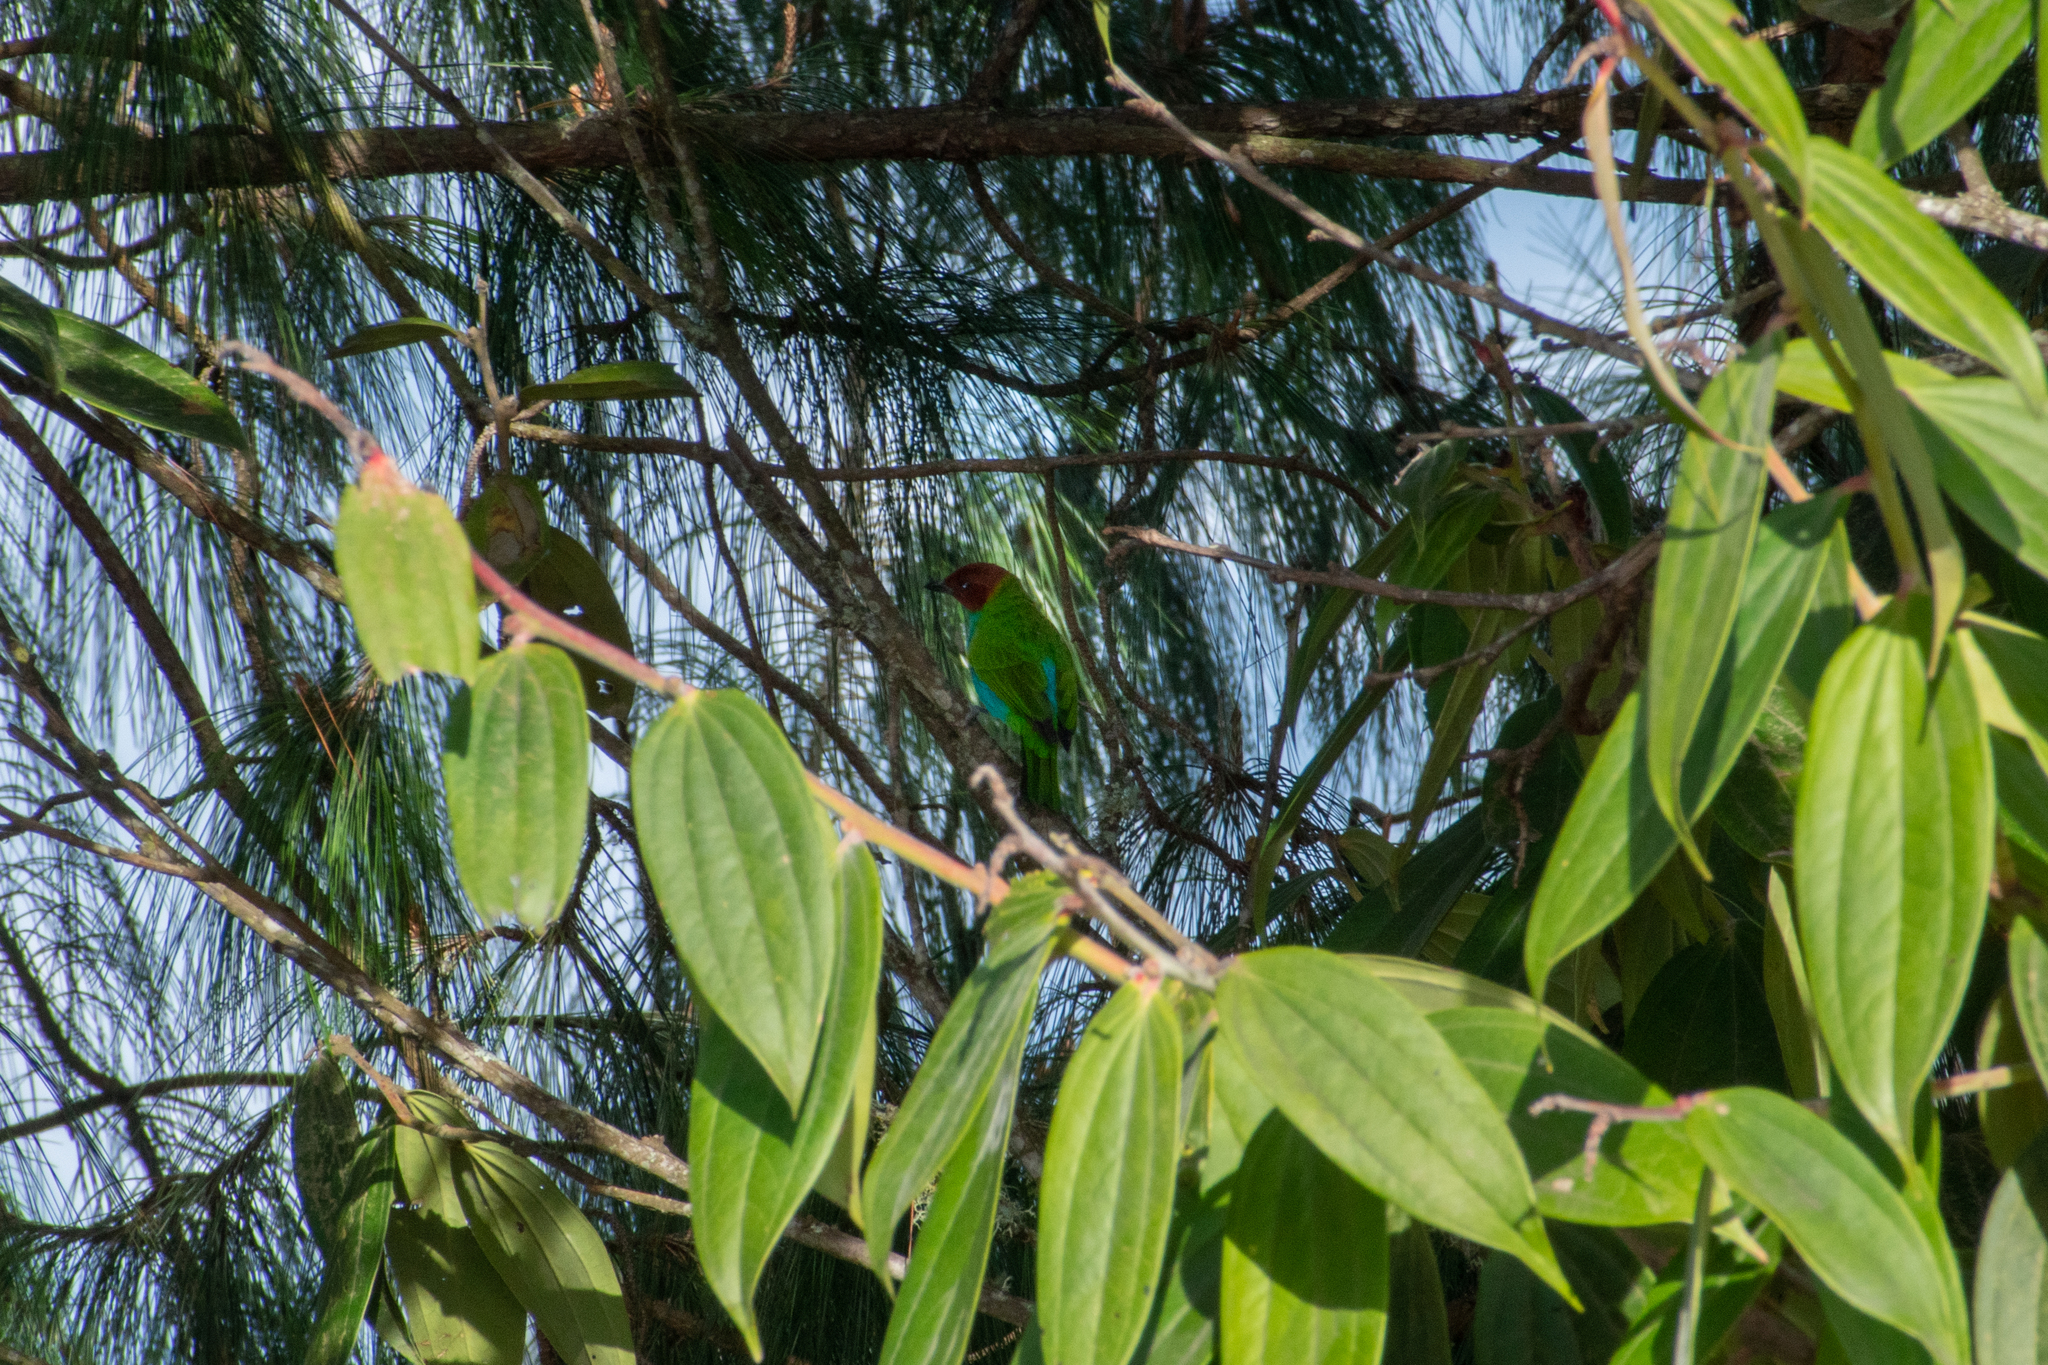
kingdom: Animalia
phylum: Chordata
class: Aves
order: Passeriformes
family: Thraupidae
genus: Tangara
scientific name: Tangara gyrola
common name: Bay-headed tanager
